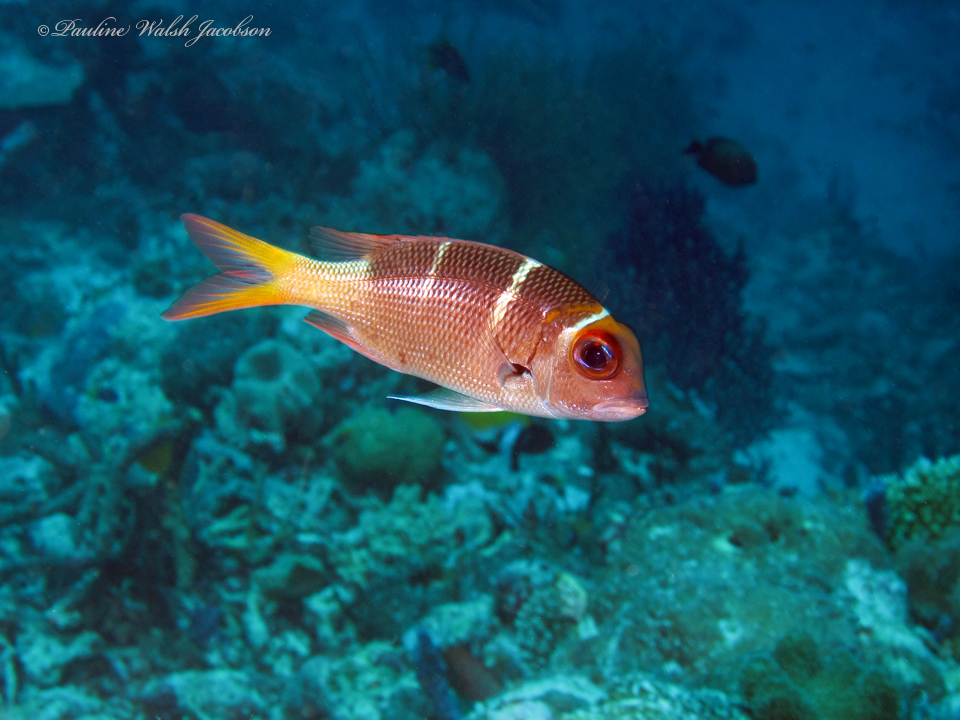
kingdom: Animalia
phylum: Chordata
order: Perciformes
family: Lethrinidae
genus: Monotaxis
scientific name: Monotaxis heterodon
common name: Redfin emperor
